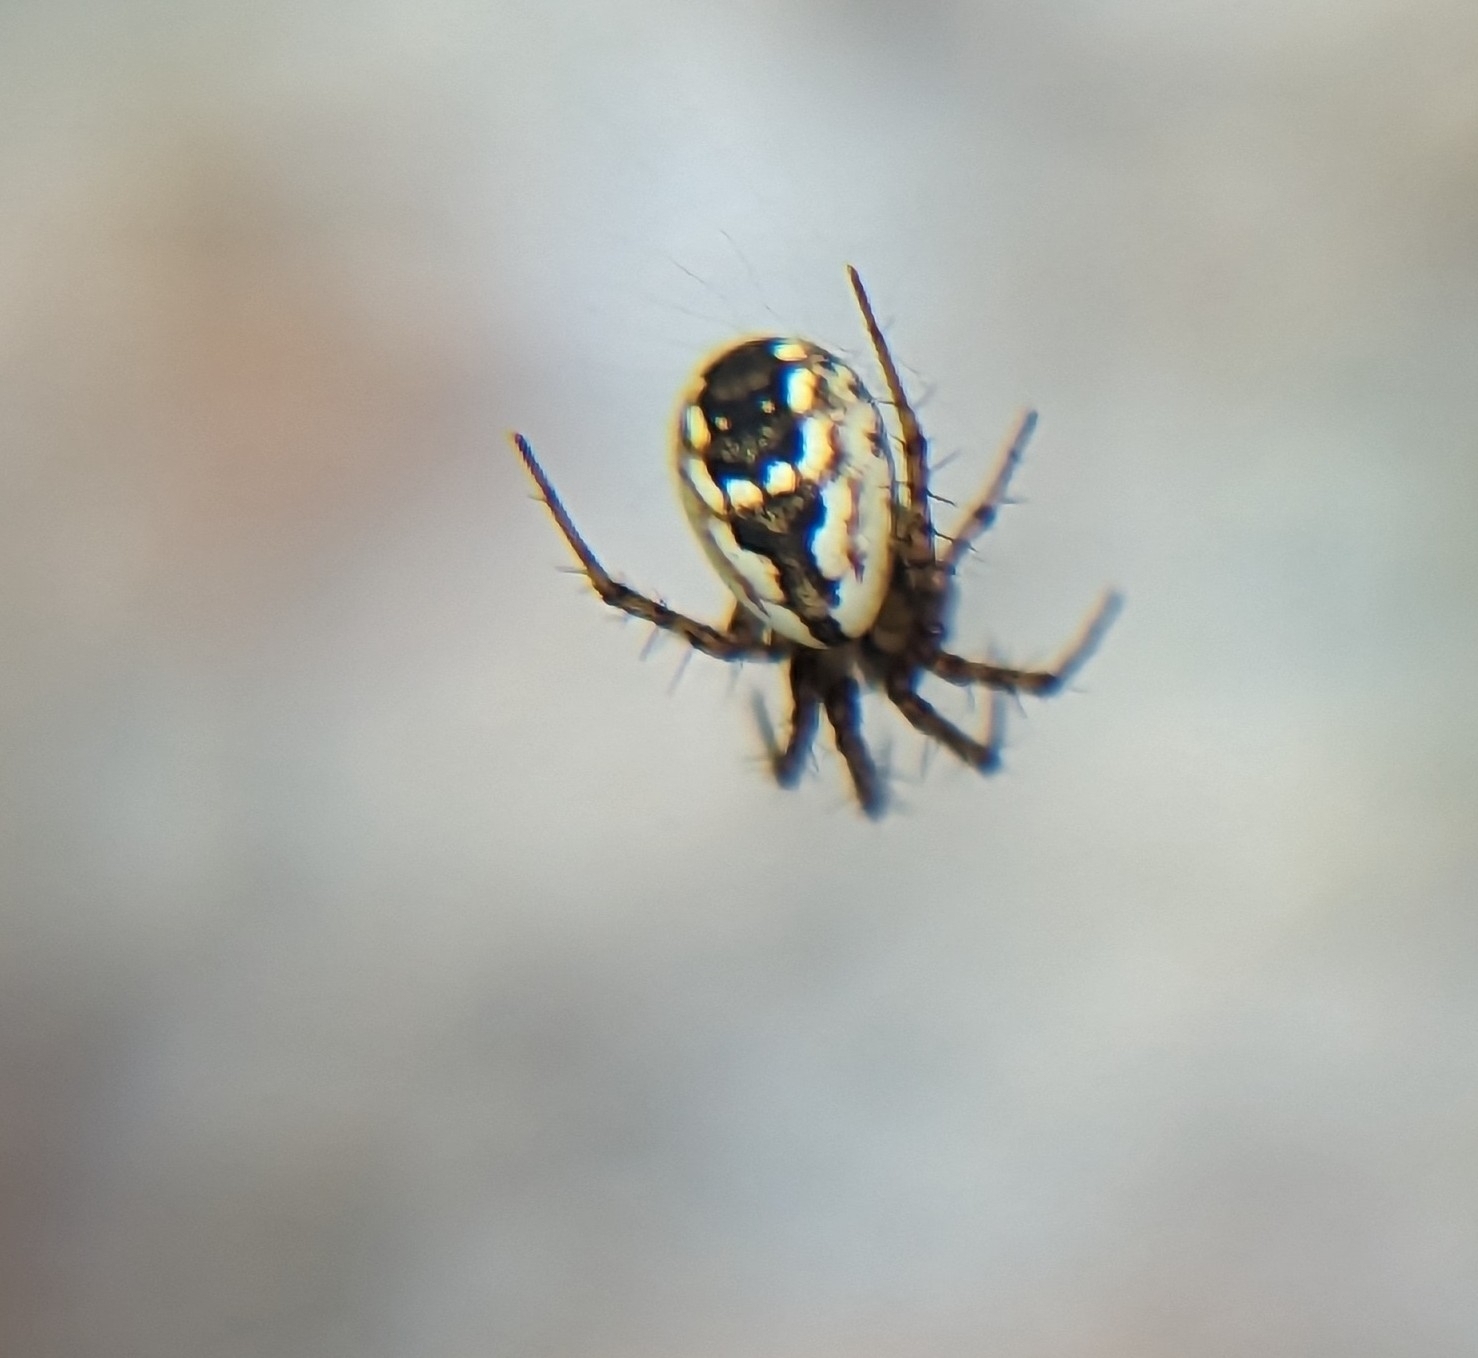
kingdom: Animalia
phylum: Arthropoda
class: Arachnida
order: Araneae
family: Araneidae
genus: Mangora
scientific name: Mangora placida
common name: Tuft-legged orbweaver
